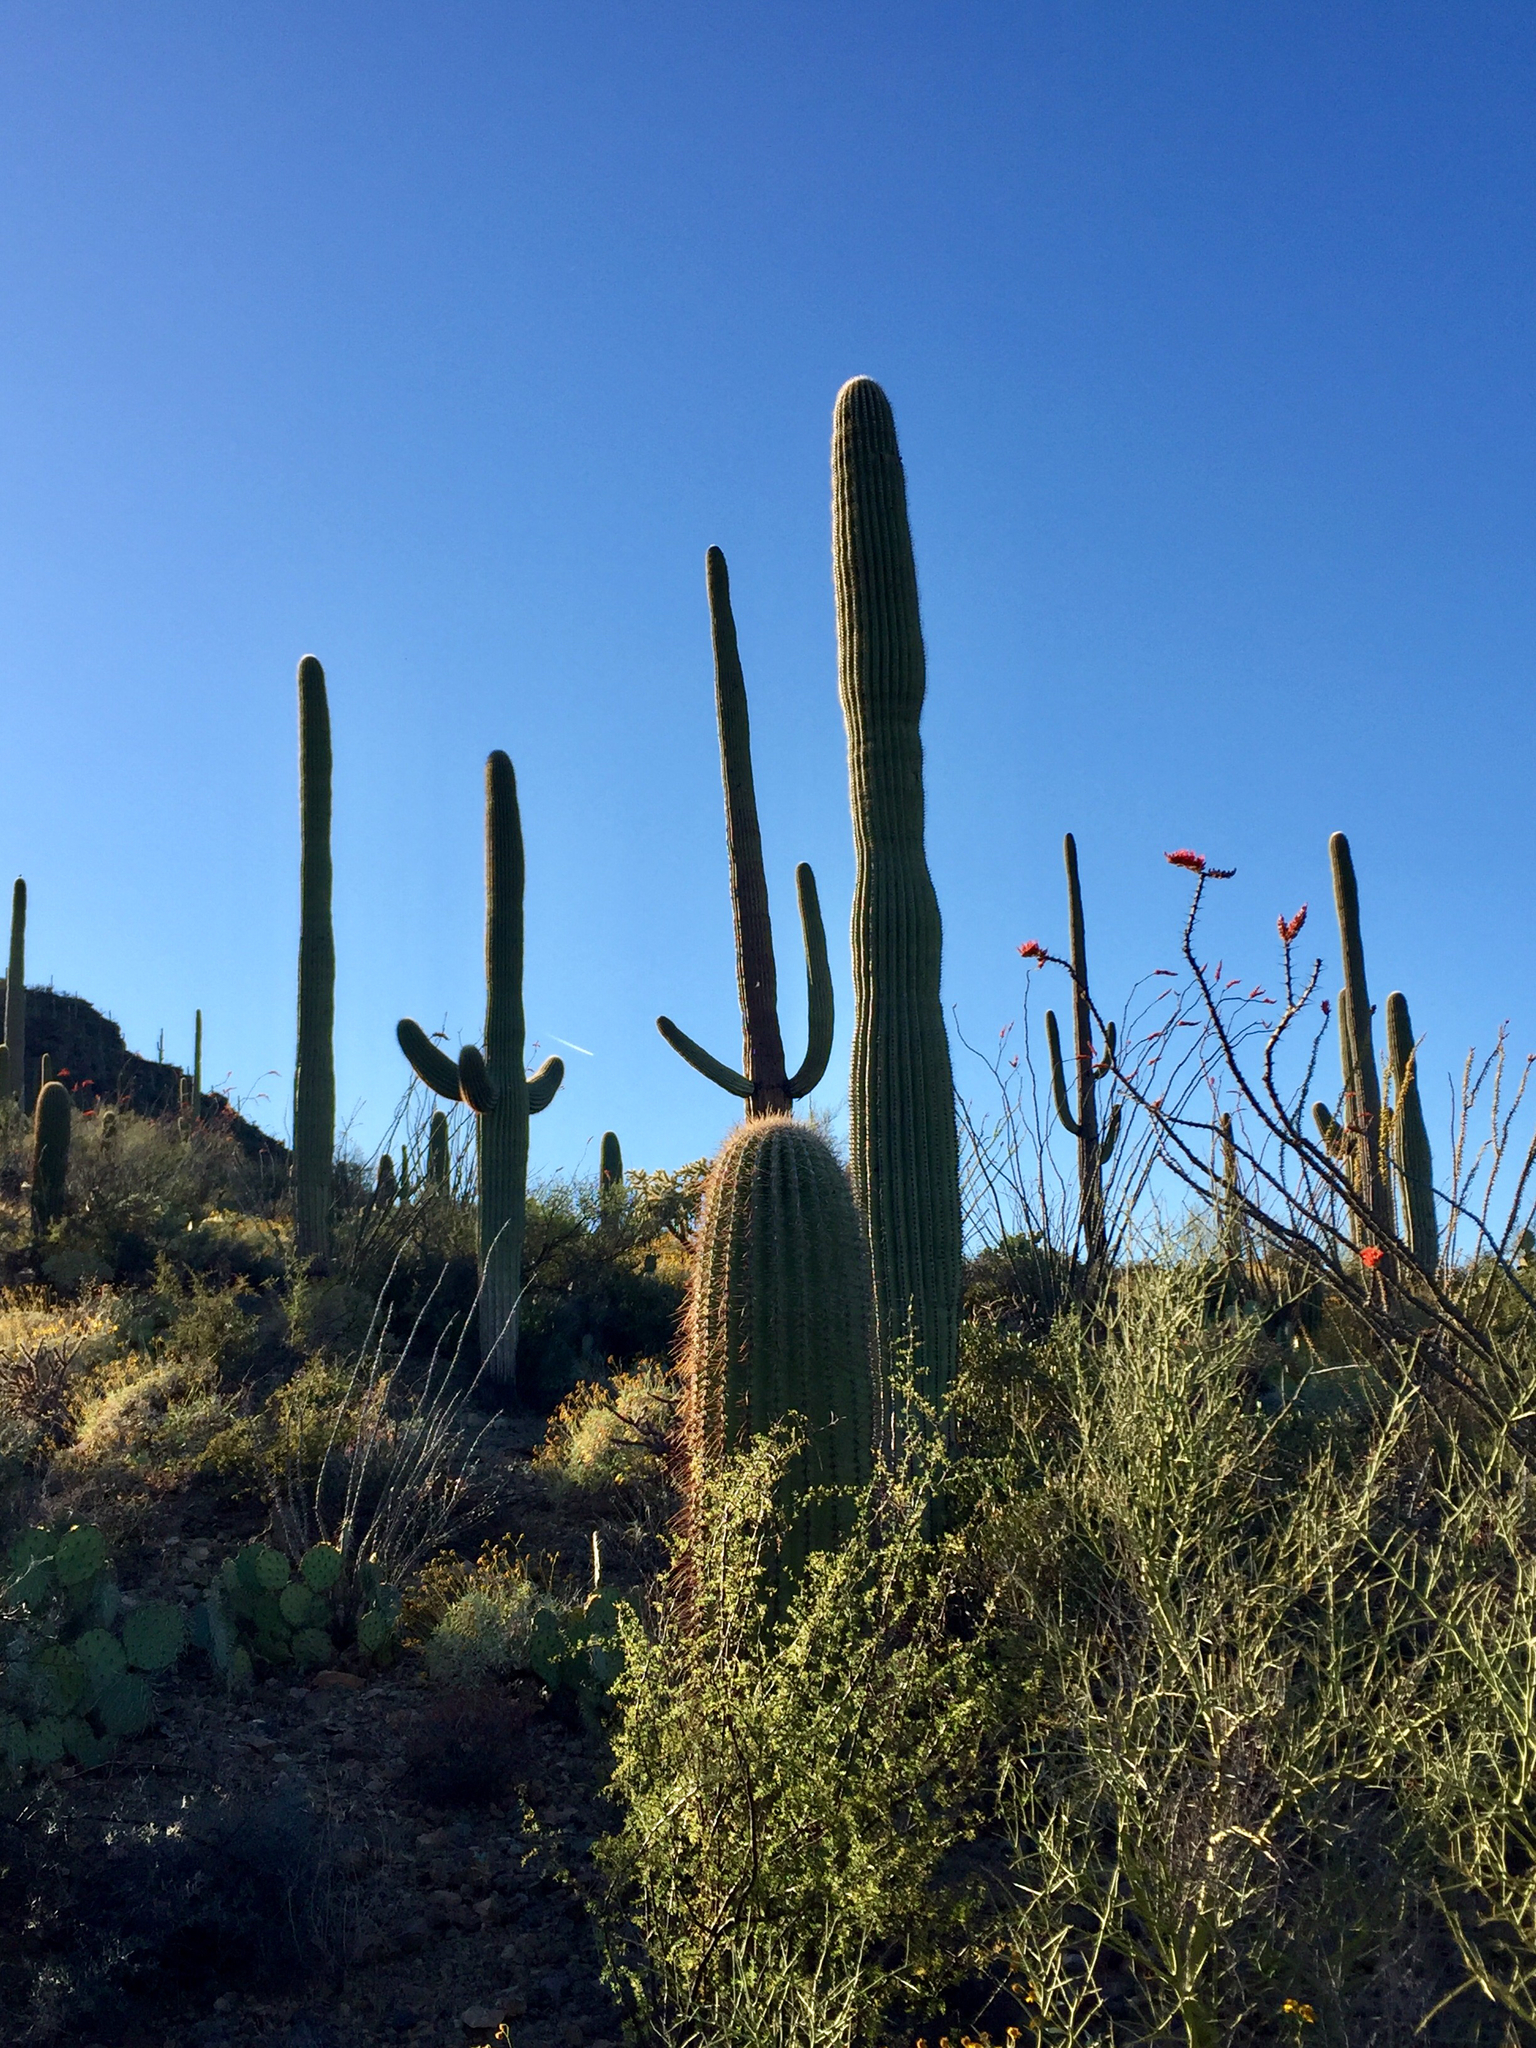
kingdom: Plantae
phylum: Tracheophyta
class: Magnoliopsida
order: Caryophyllales
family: Cactaceae
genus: Carnegiea
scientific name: Carnegiea gigantea
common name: Saguaro
